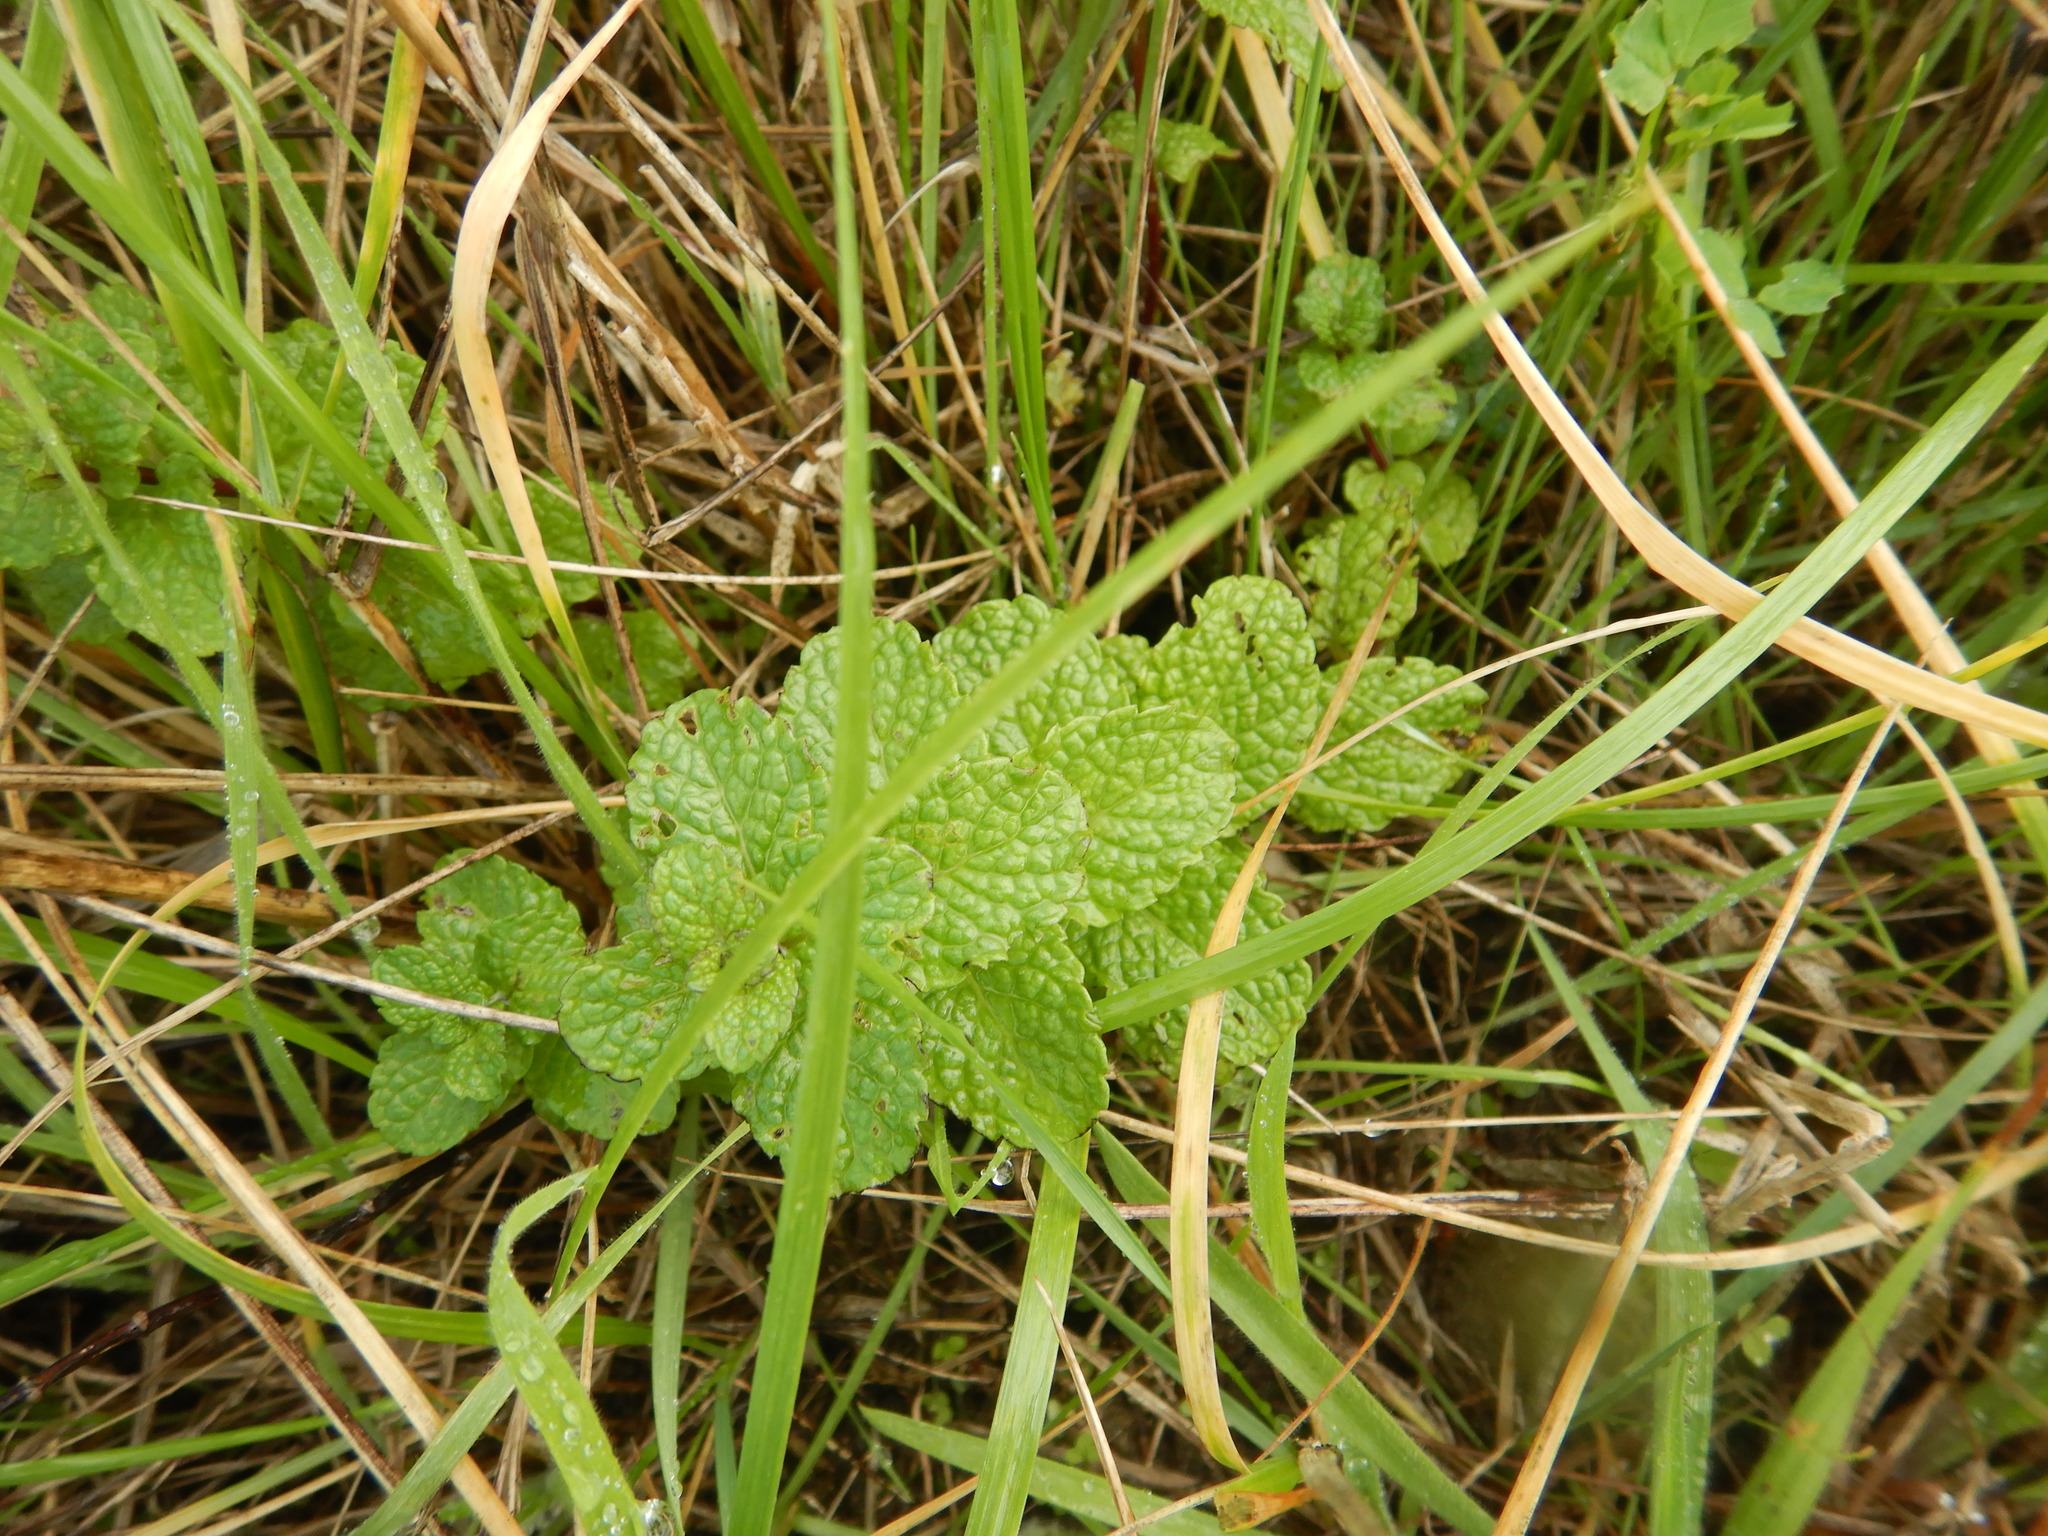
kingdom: Plantae
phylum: Tracheophyta
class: Magnoliopsida
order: Lamiales
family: Lamiaceae
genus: Mentha
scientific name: Mentha spicata
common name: Spearmint
